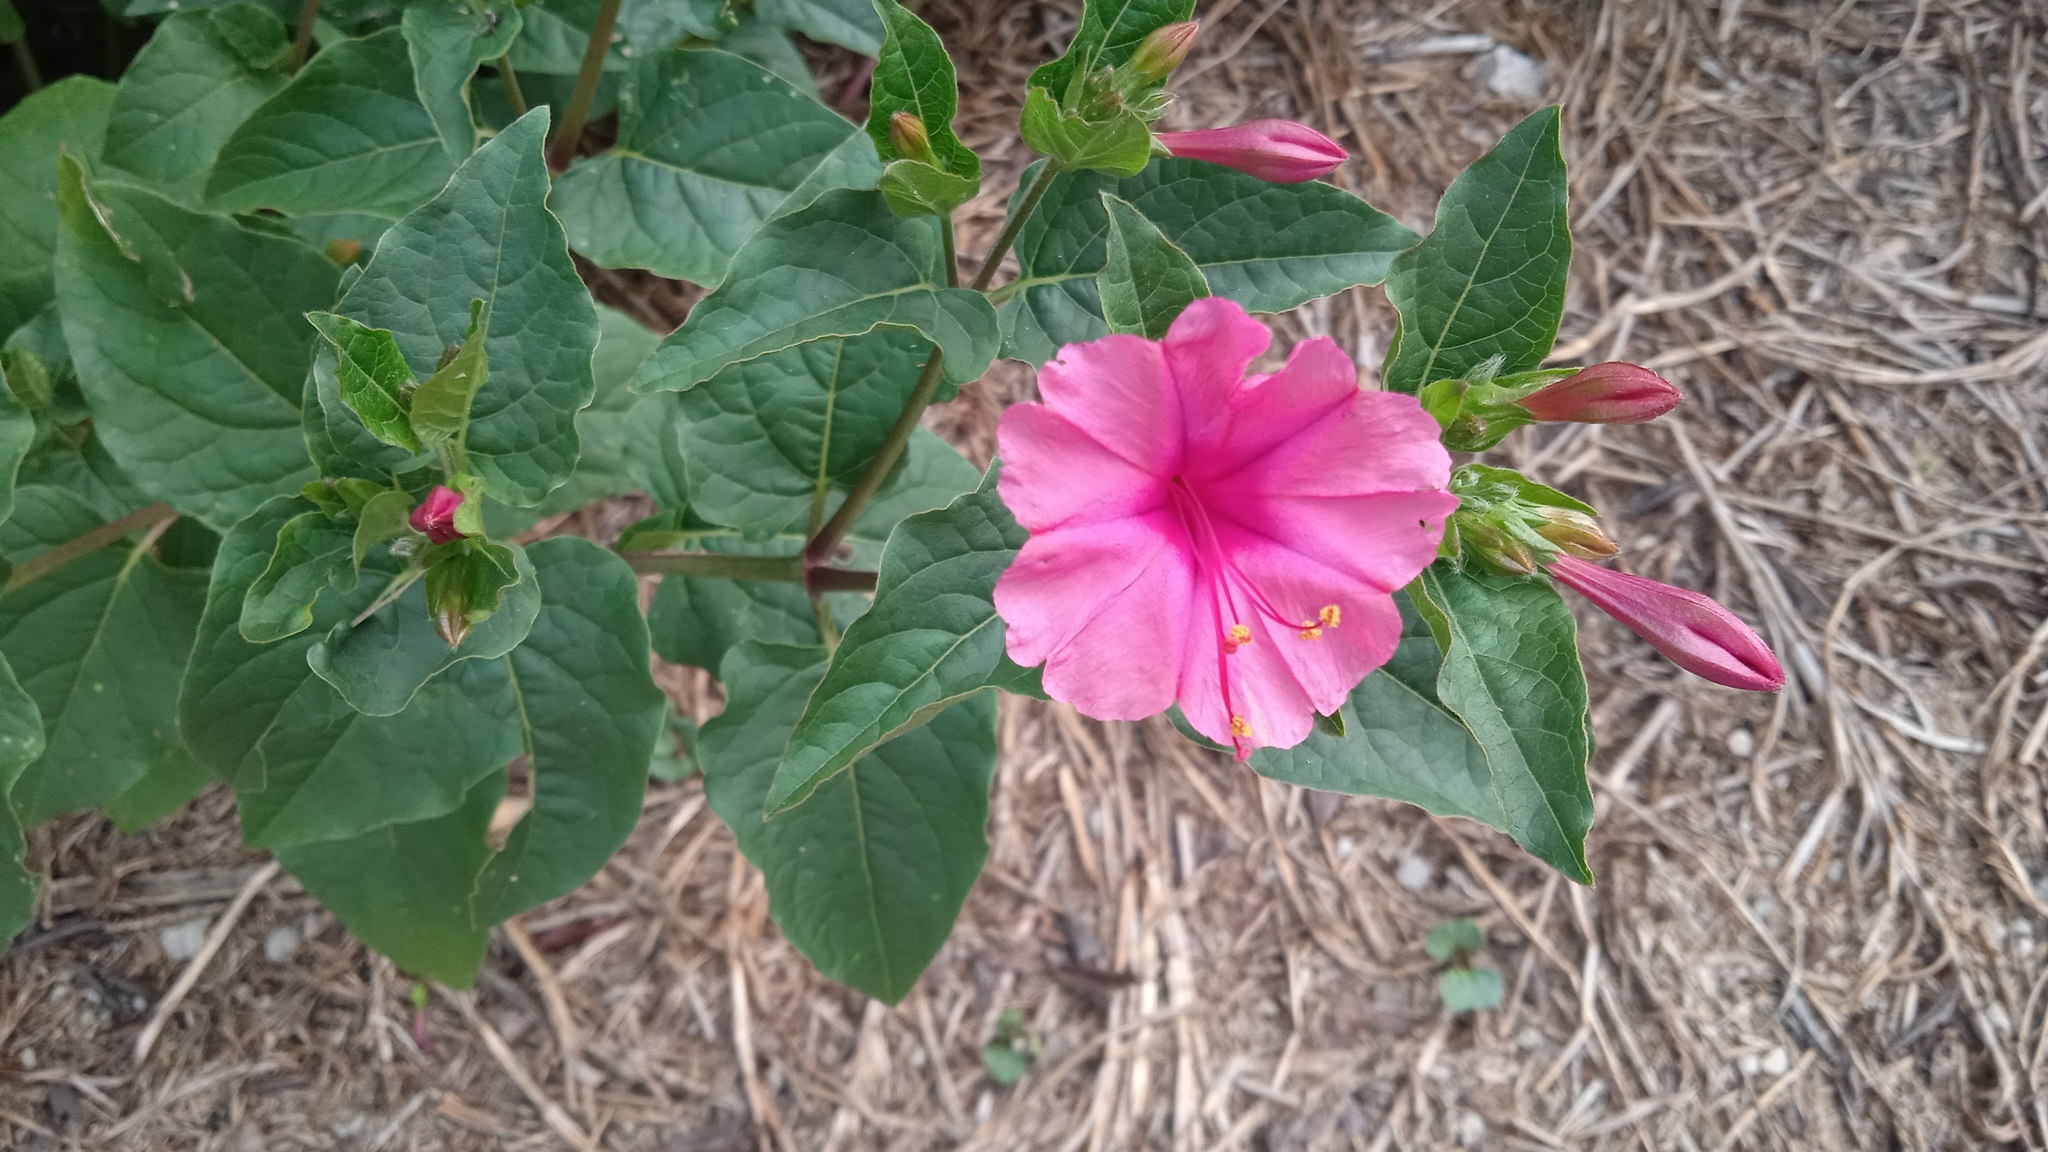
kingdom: Plantae
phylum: Tracheophyta
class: Magnoliopsida
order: Caryophyllales
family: Nyctaginaceae
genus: Mirabilis
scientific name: Mirabilis jalapa
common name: Marvel-of-peru
